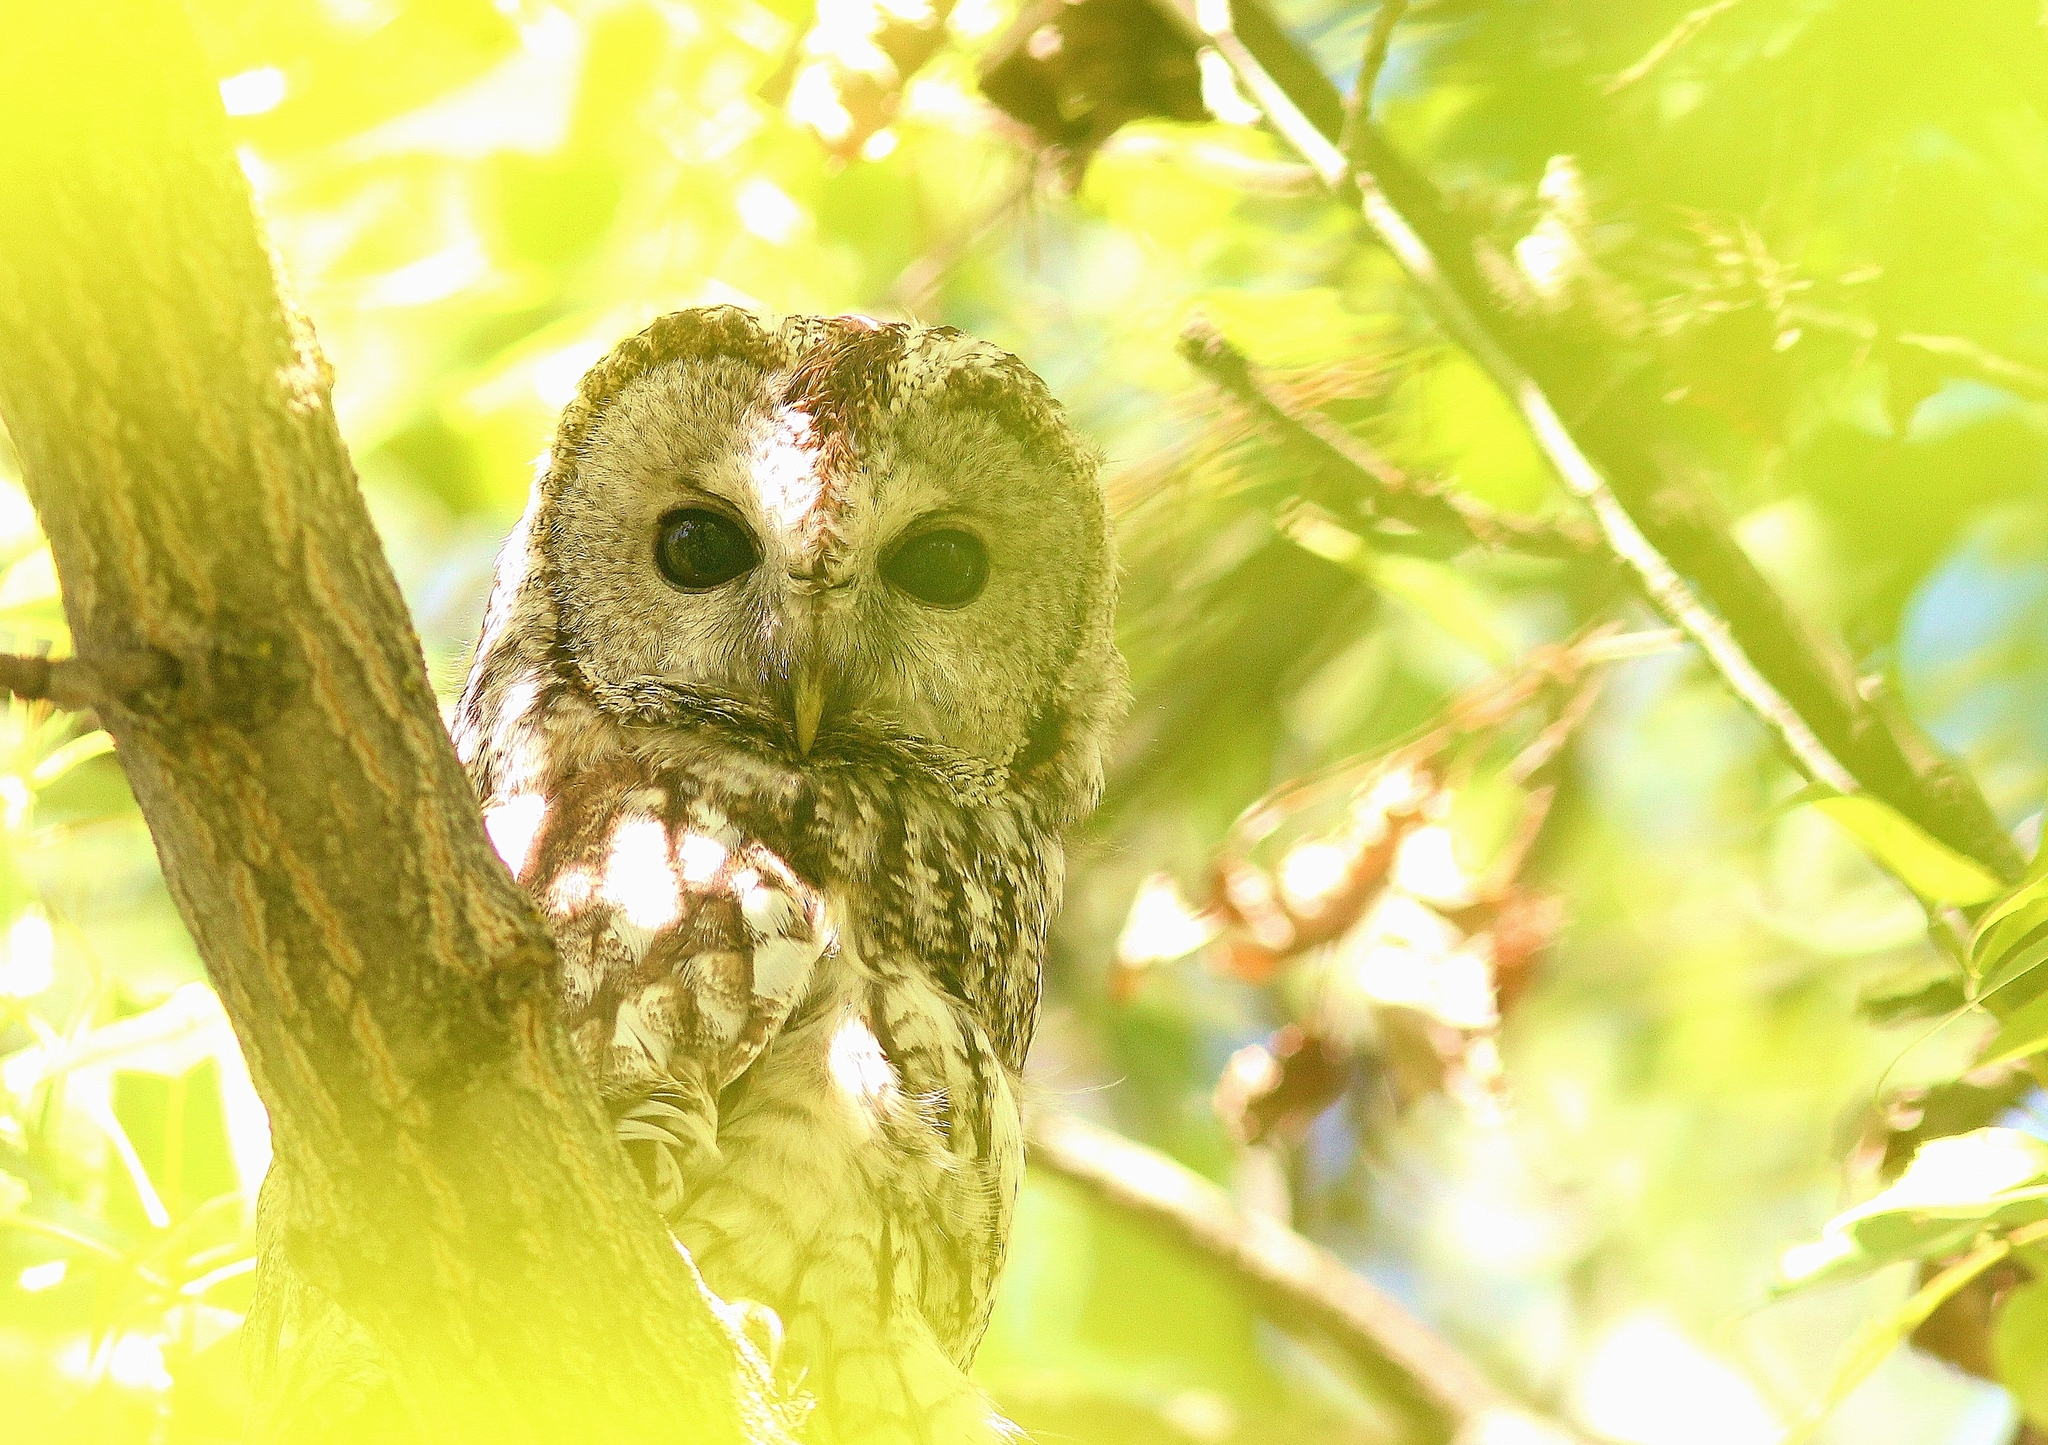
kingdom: Animalia
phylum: Chordata
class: Aves
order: Strigiformes
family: Strigidae
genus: Strix
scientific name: Strix aluco
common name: Tawny owl
